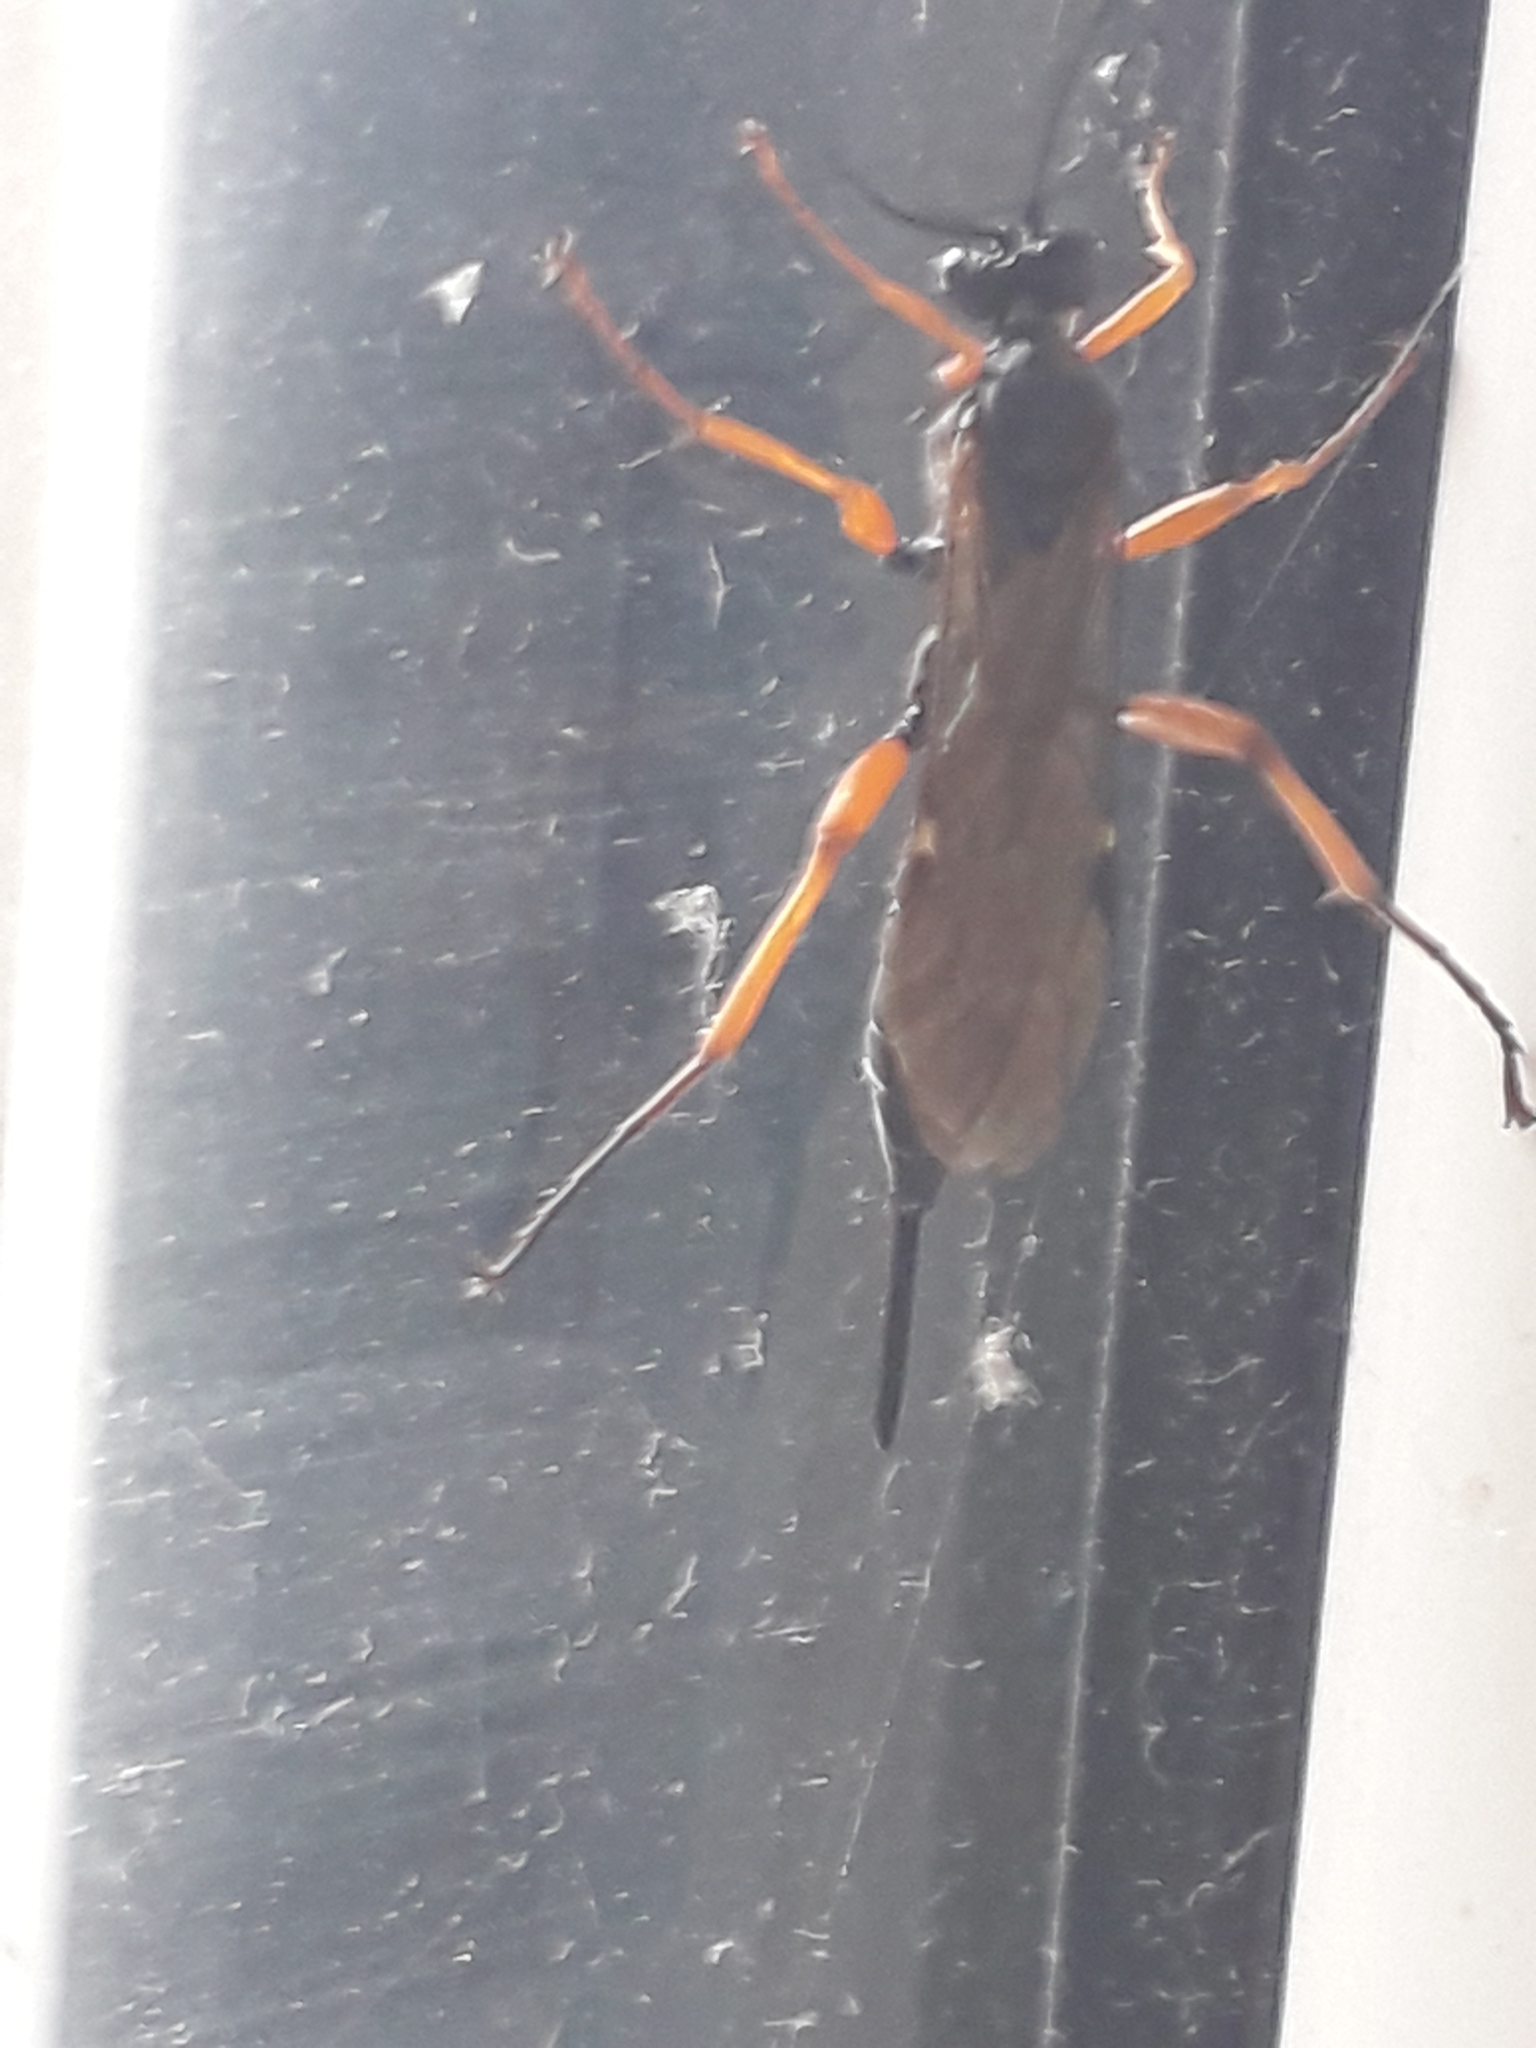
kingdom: Animalia
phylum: Arthropoda
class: Insecta
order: Hymenoptera
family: Ichneumonidae
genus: Pimpla
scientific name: Pimpla rufipes
